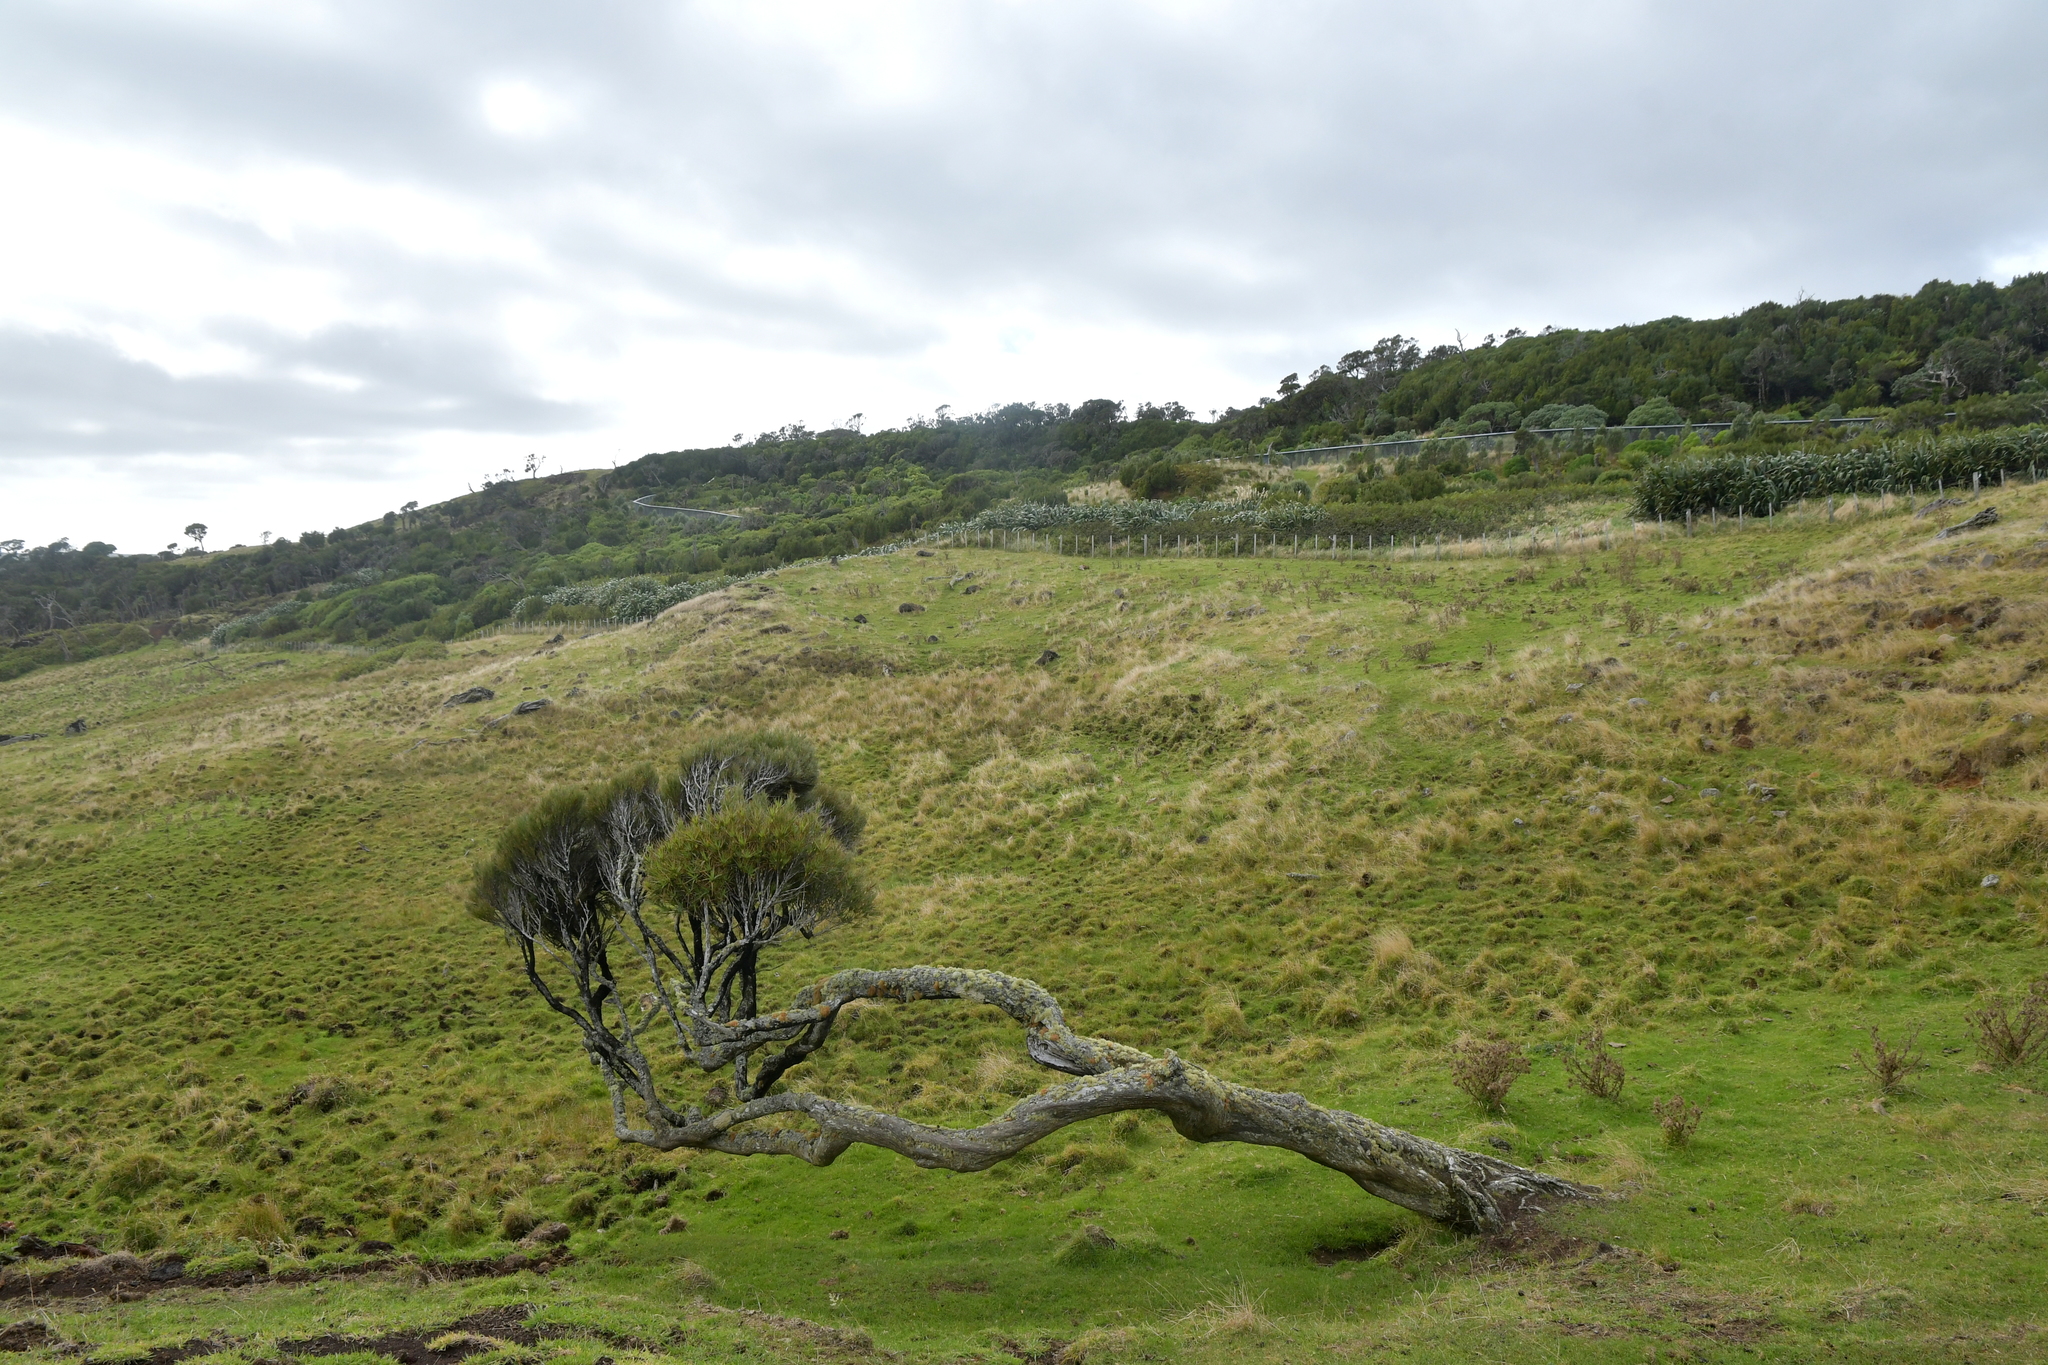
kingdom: Plantae
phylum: Tracheophyta
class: Magnoliopsida
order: Ericales
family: Ericaceae
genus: Dracophyllum
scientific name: Dracophyllum arboreum
